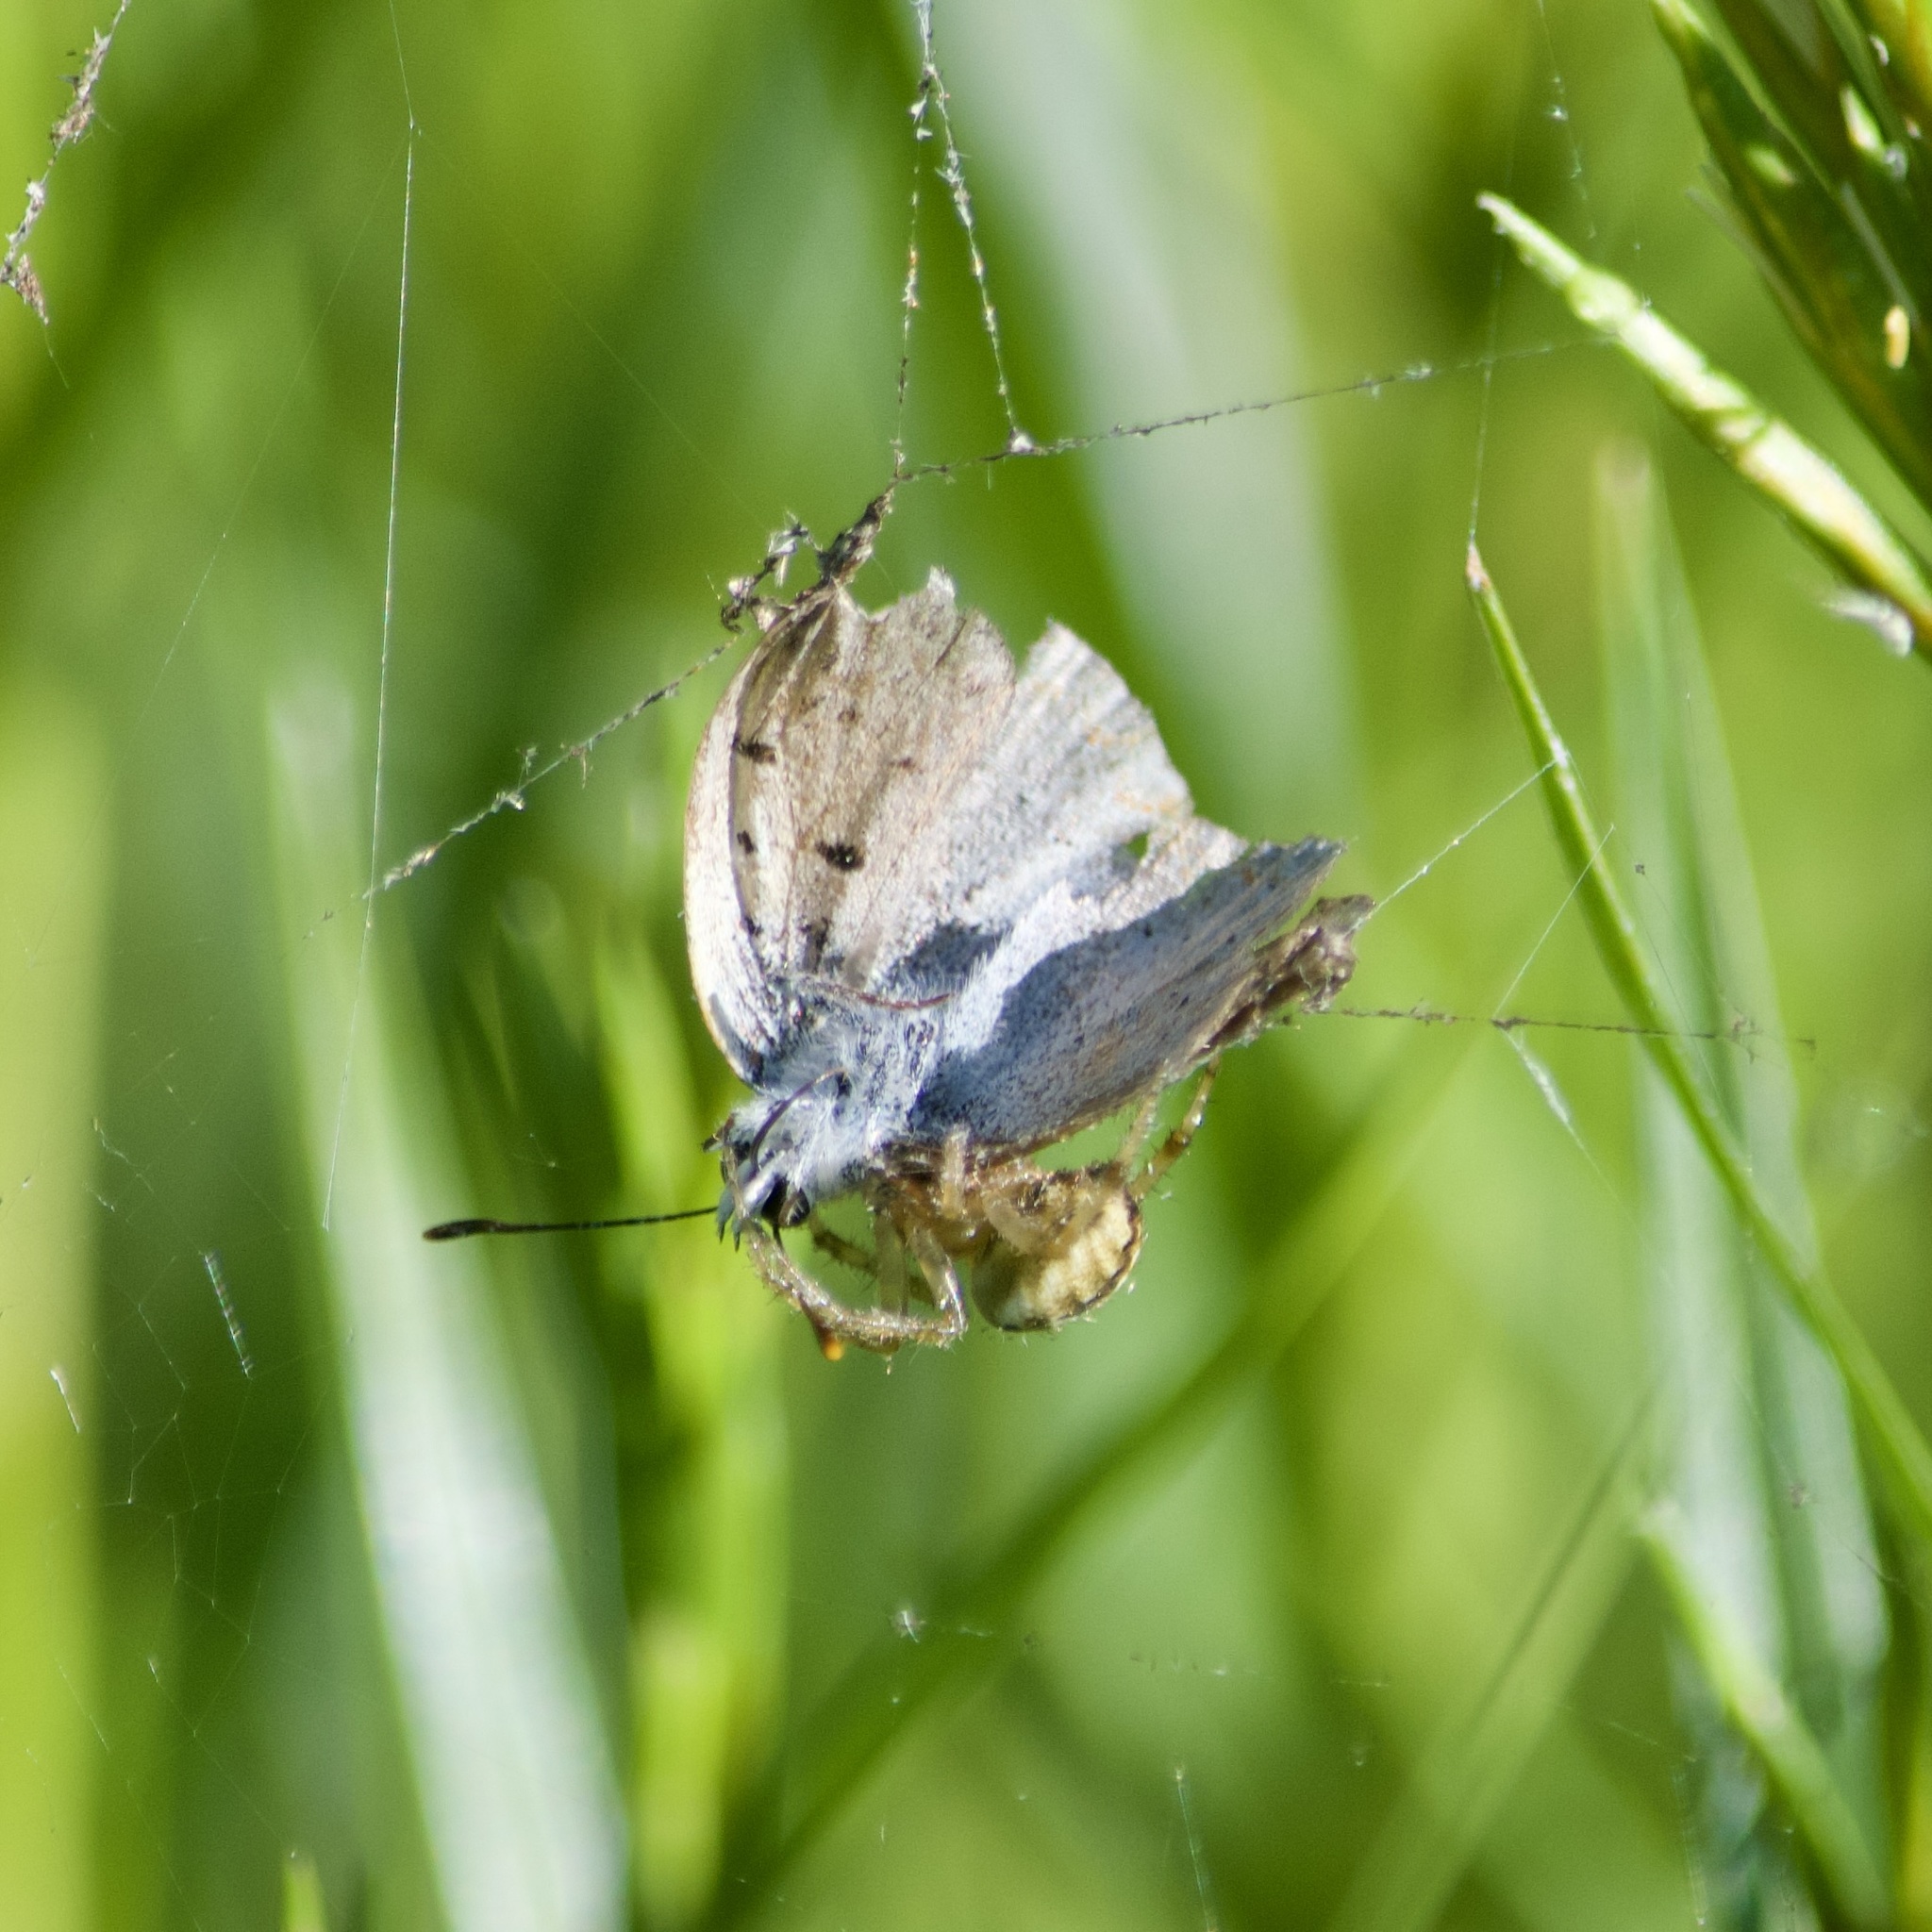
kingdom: Animalia
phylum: Arthropoda
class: Insecta
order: Lepidoptera
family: Lycaenidae
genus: Tharsalea
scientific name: Tharsalea epixanthe
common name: Bog copper
